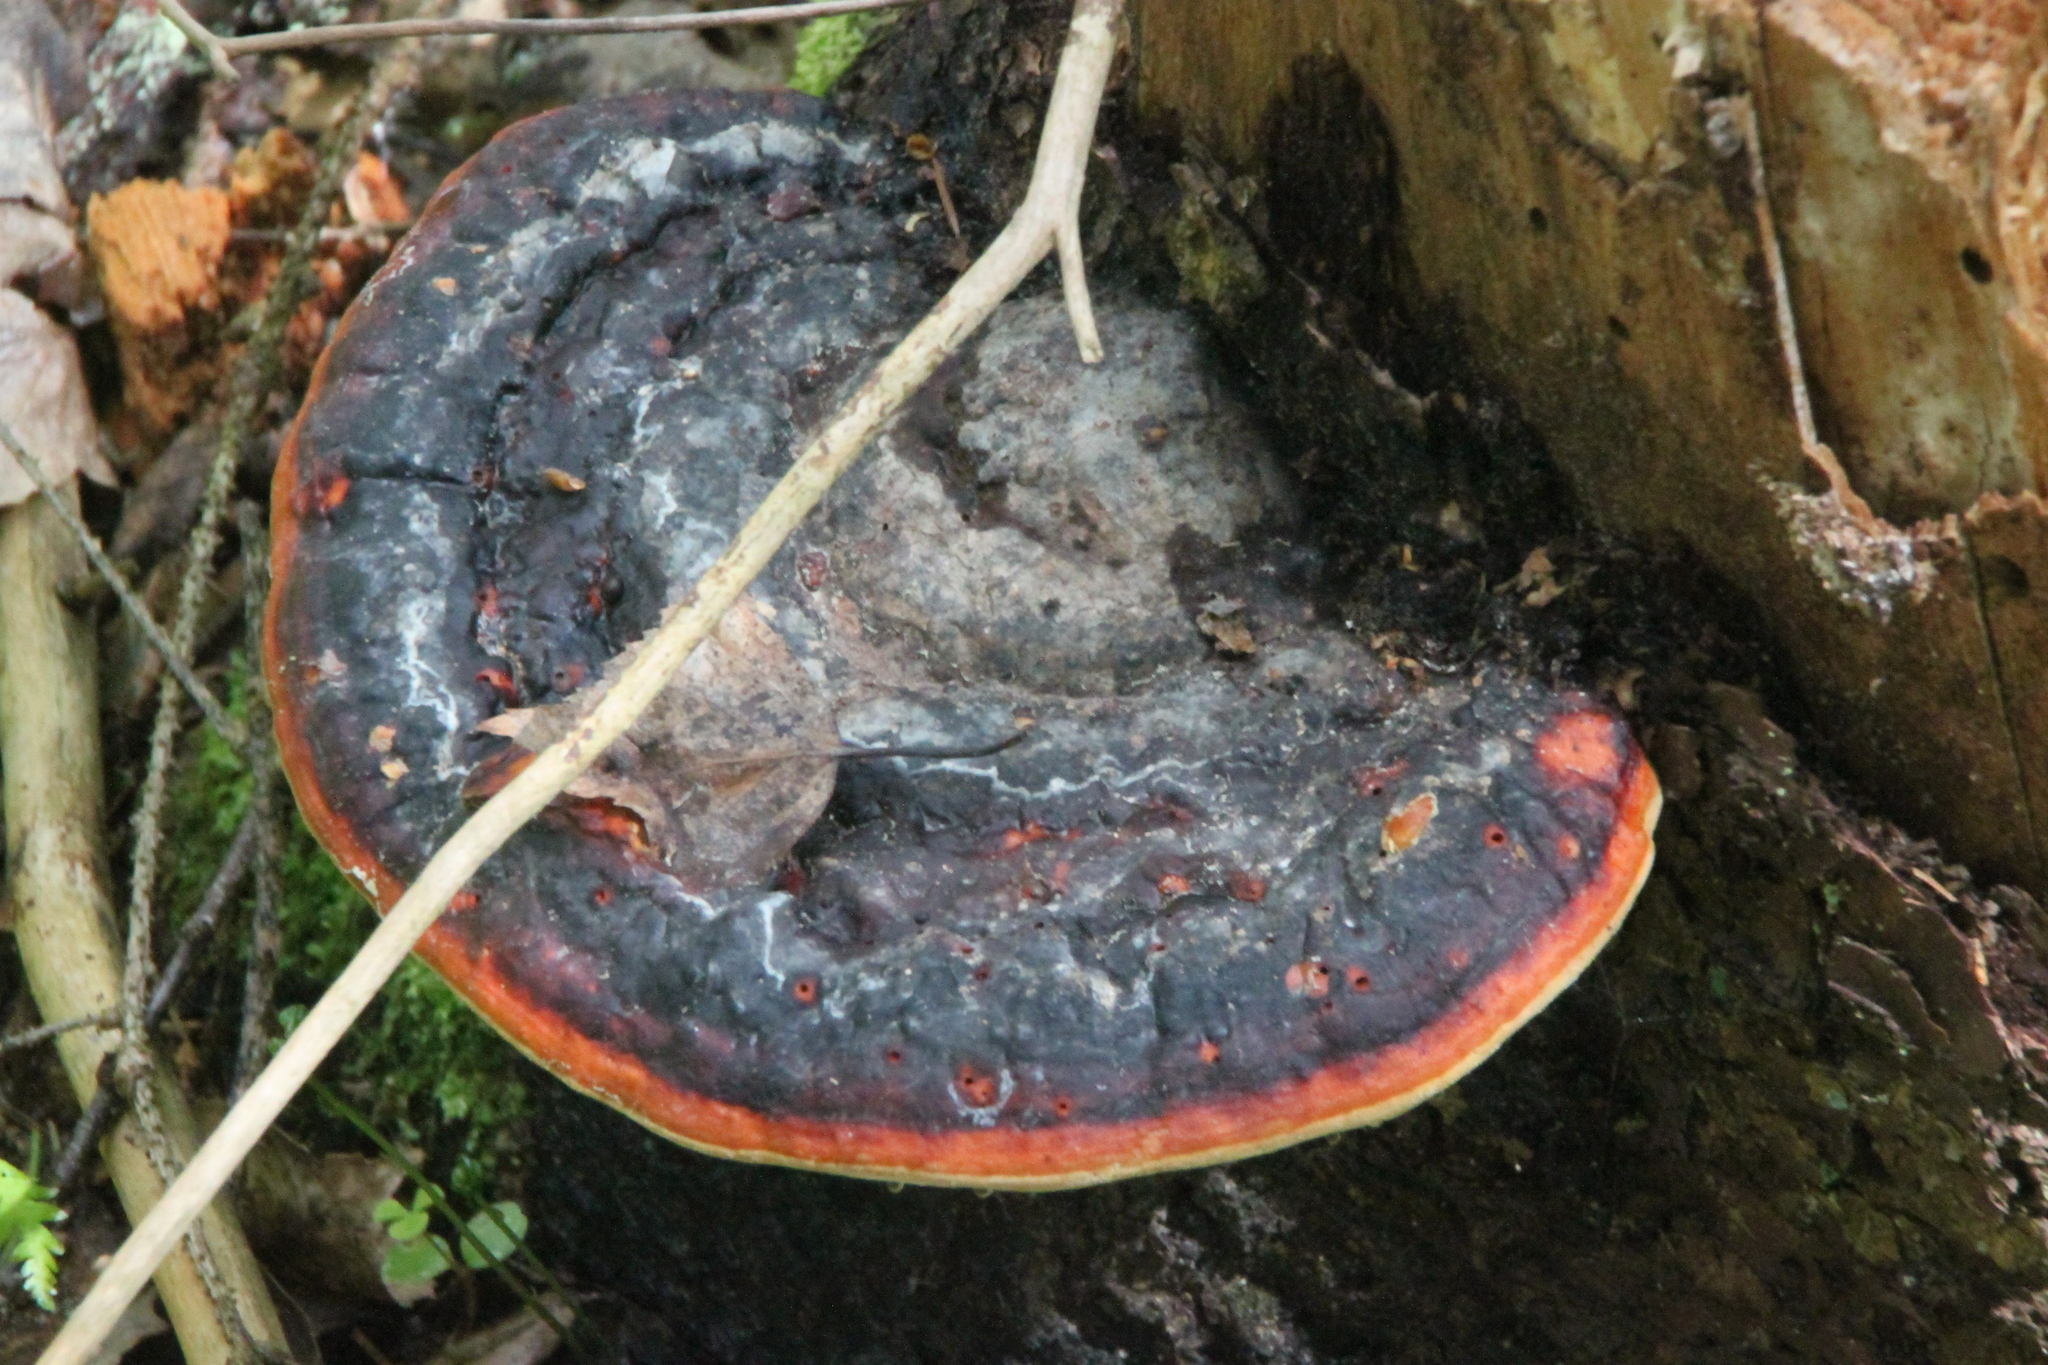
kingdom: Fungi
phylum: Basidiomycota
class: Agaricomycetes
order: Polyporales
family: Fomitopsidaceae
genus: Fomitopsis
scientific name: Fomitopsis pinicola
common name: Red-belted bracket
